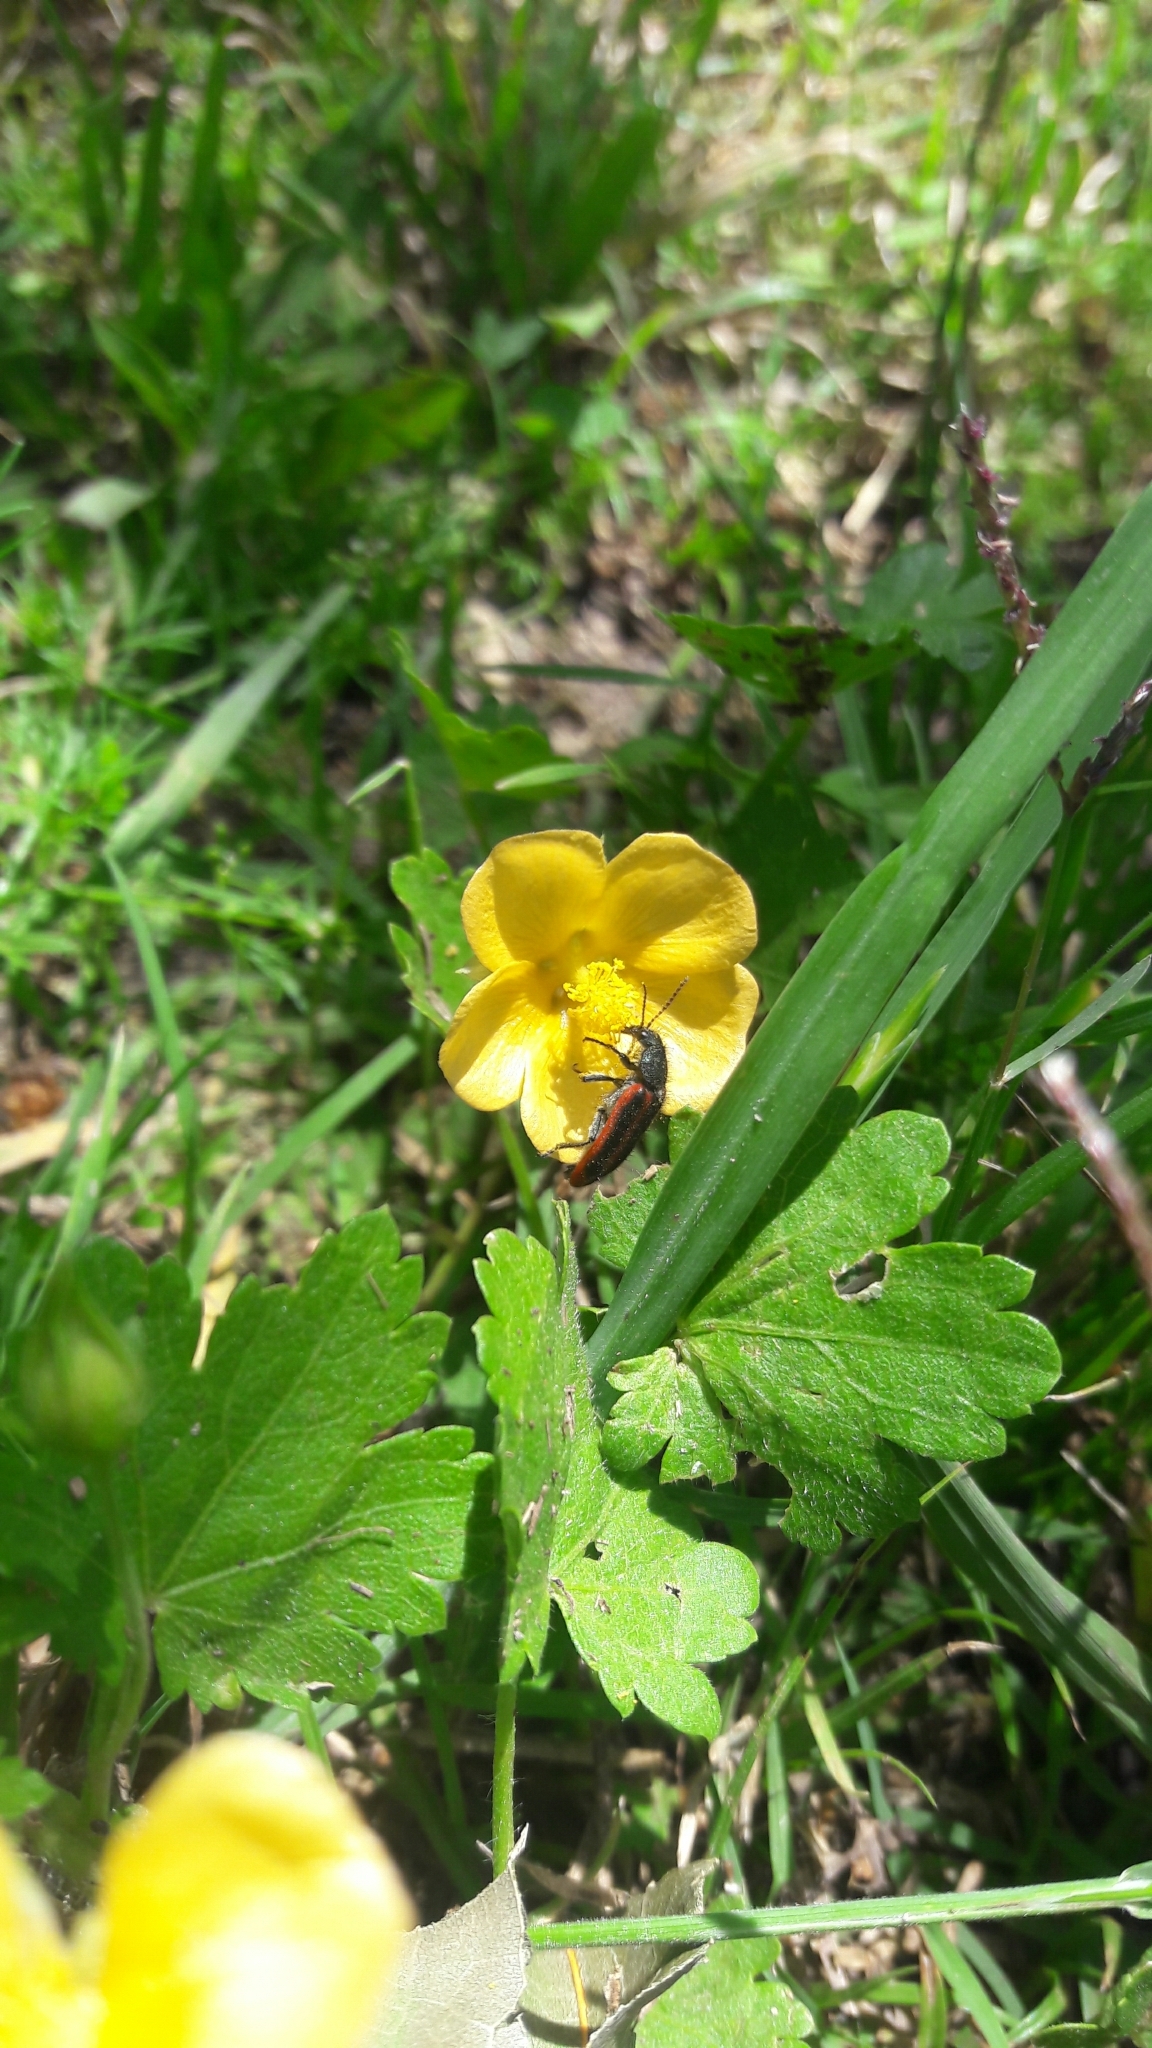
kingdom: Plantae
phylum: Tracheophyta
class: Magnoliopsida
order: Malvales
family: Malvaceae
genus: Modiolastrum
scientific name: Modiolastrum malvifolium
